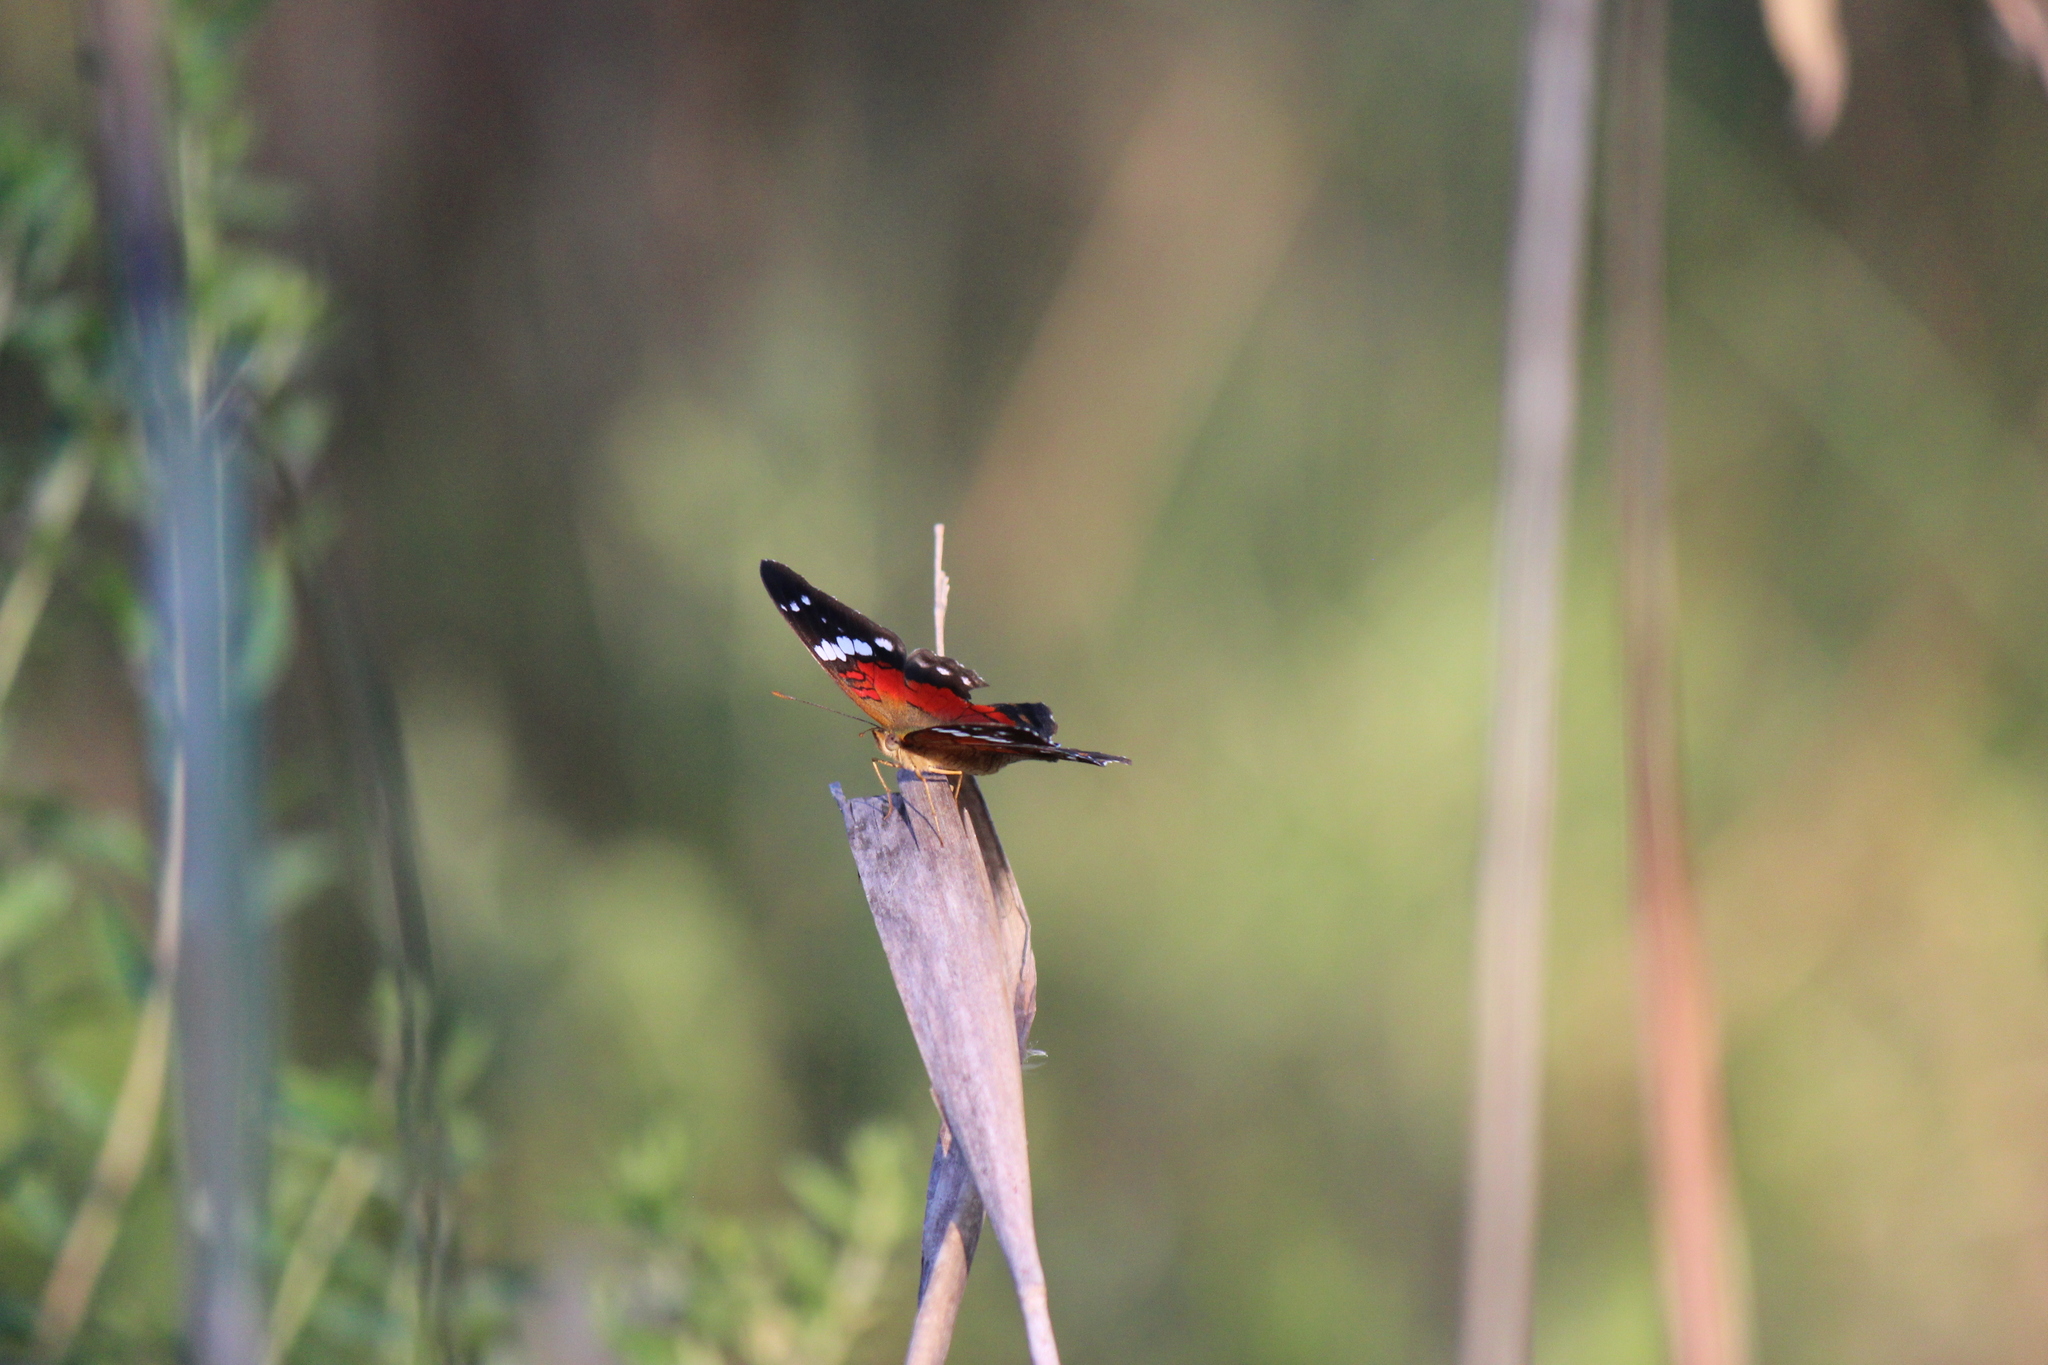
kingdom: Animalia
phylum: Arthropoda
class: Insecta
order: Lepidoptera
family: Nymphalidae
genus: Anartia
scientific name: Anartia amathea
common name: Red peacock
